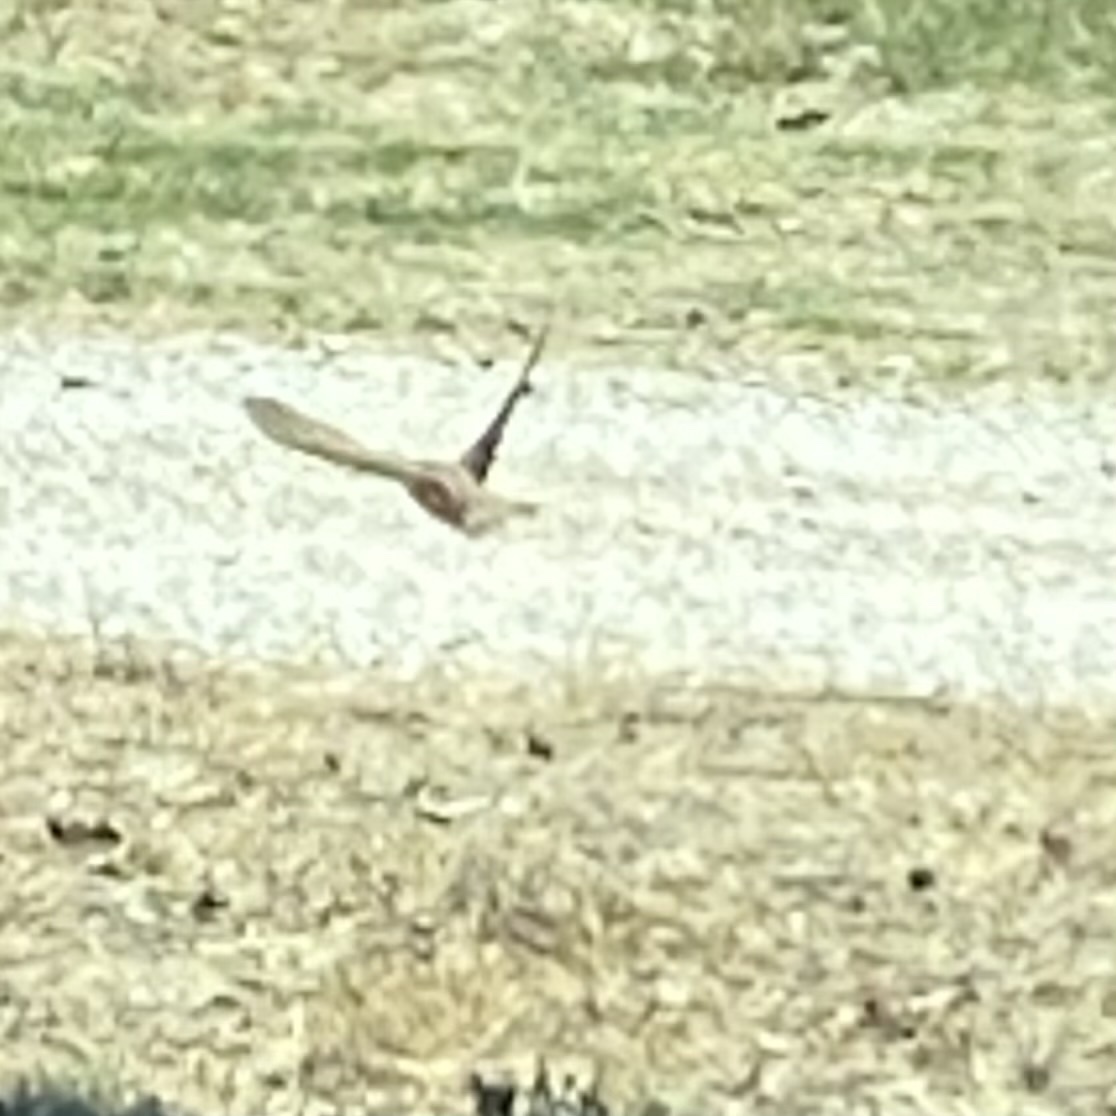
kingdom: Animalia
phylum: Chordata
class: Aves
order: Bucerotiformes
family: Upupidae
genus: Upupa
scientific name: Upupa epops
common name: Eurasian hoopoe
